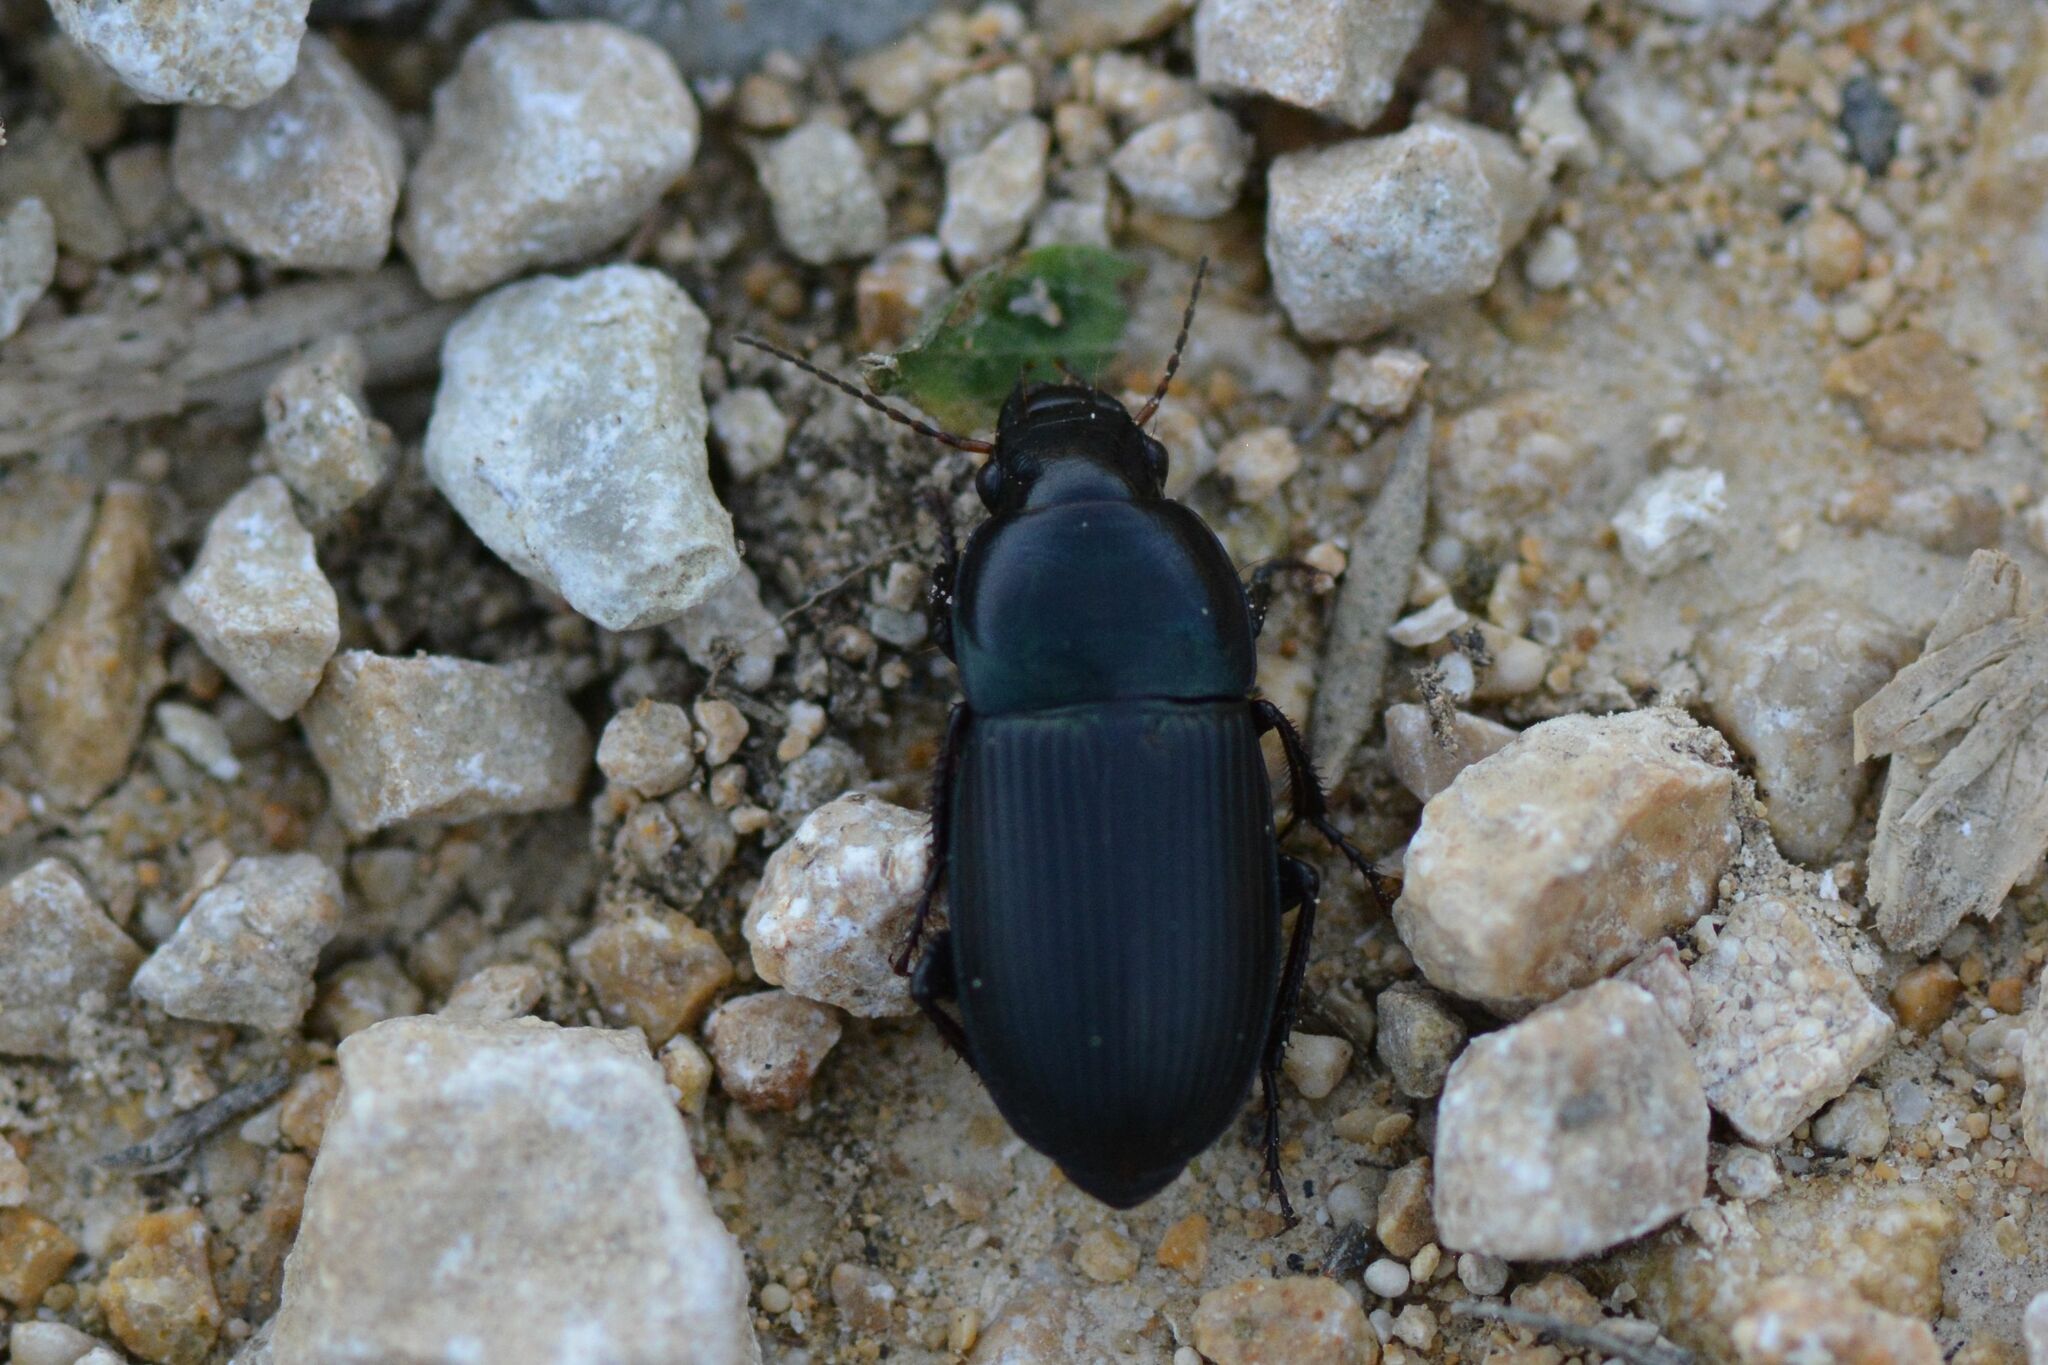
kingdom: Animalia
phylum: Arthropoda
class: Insecta
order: Coleoptera
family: Carabidae
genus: Harpalus
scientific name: Harpalus dimidiatus
